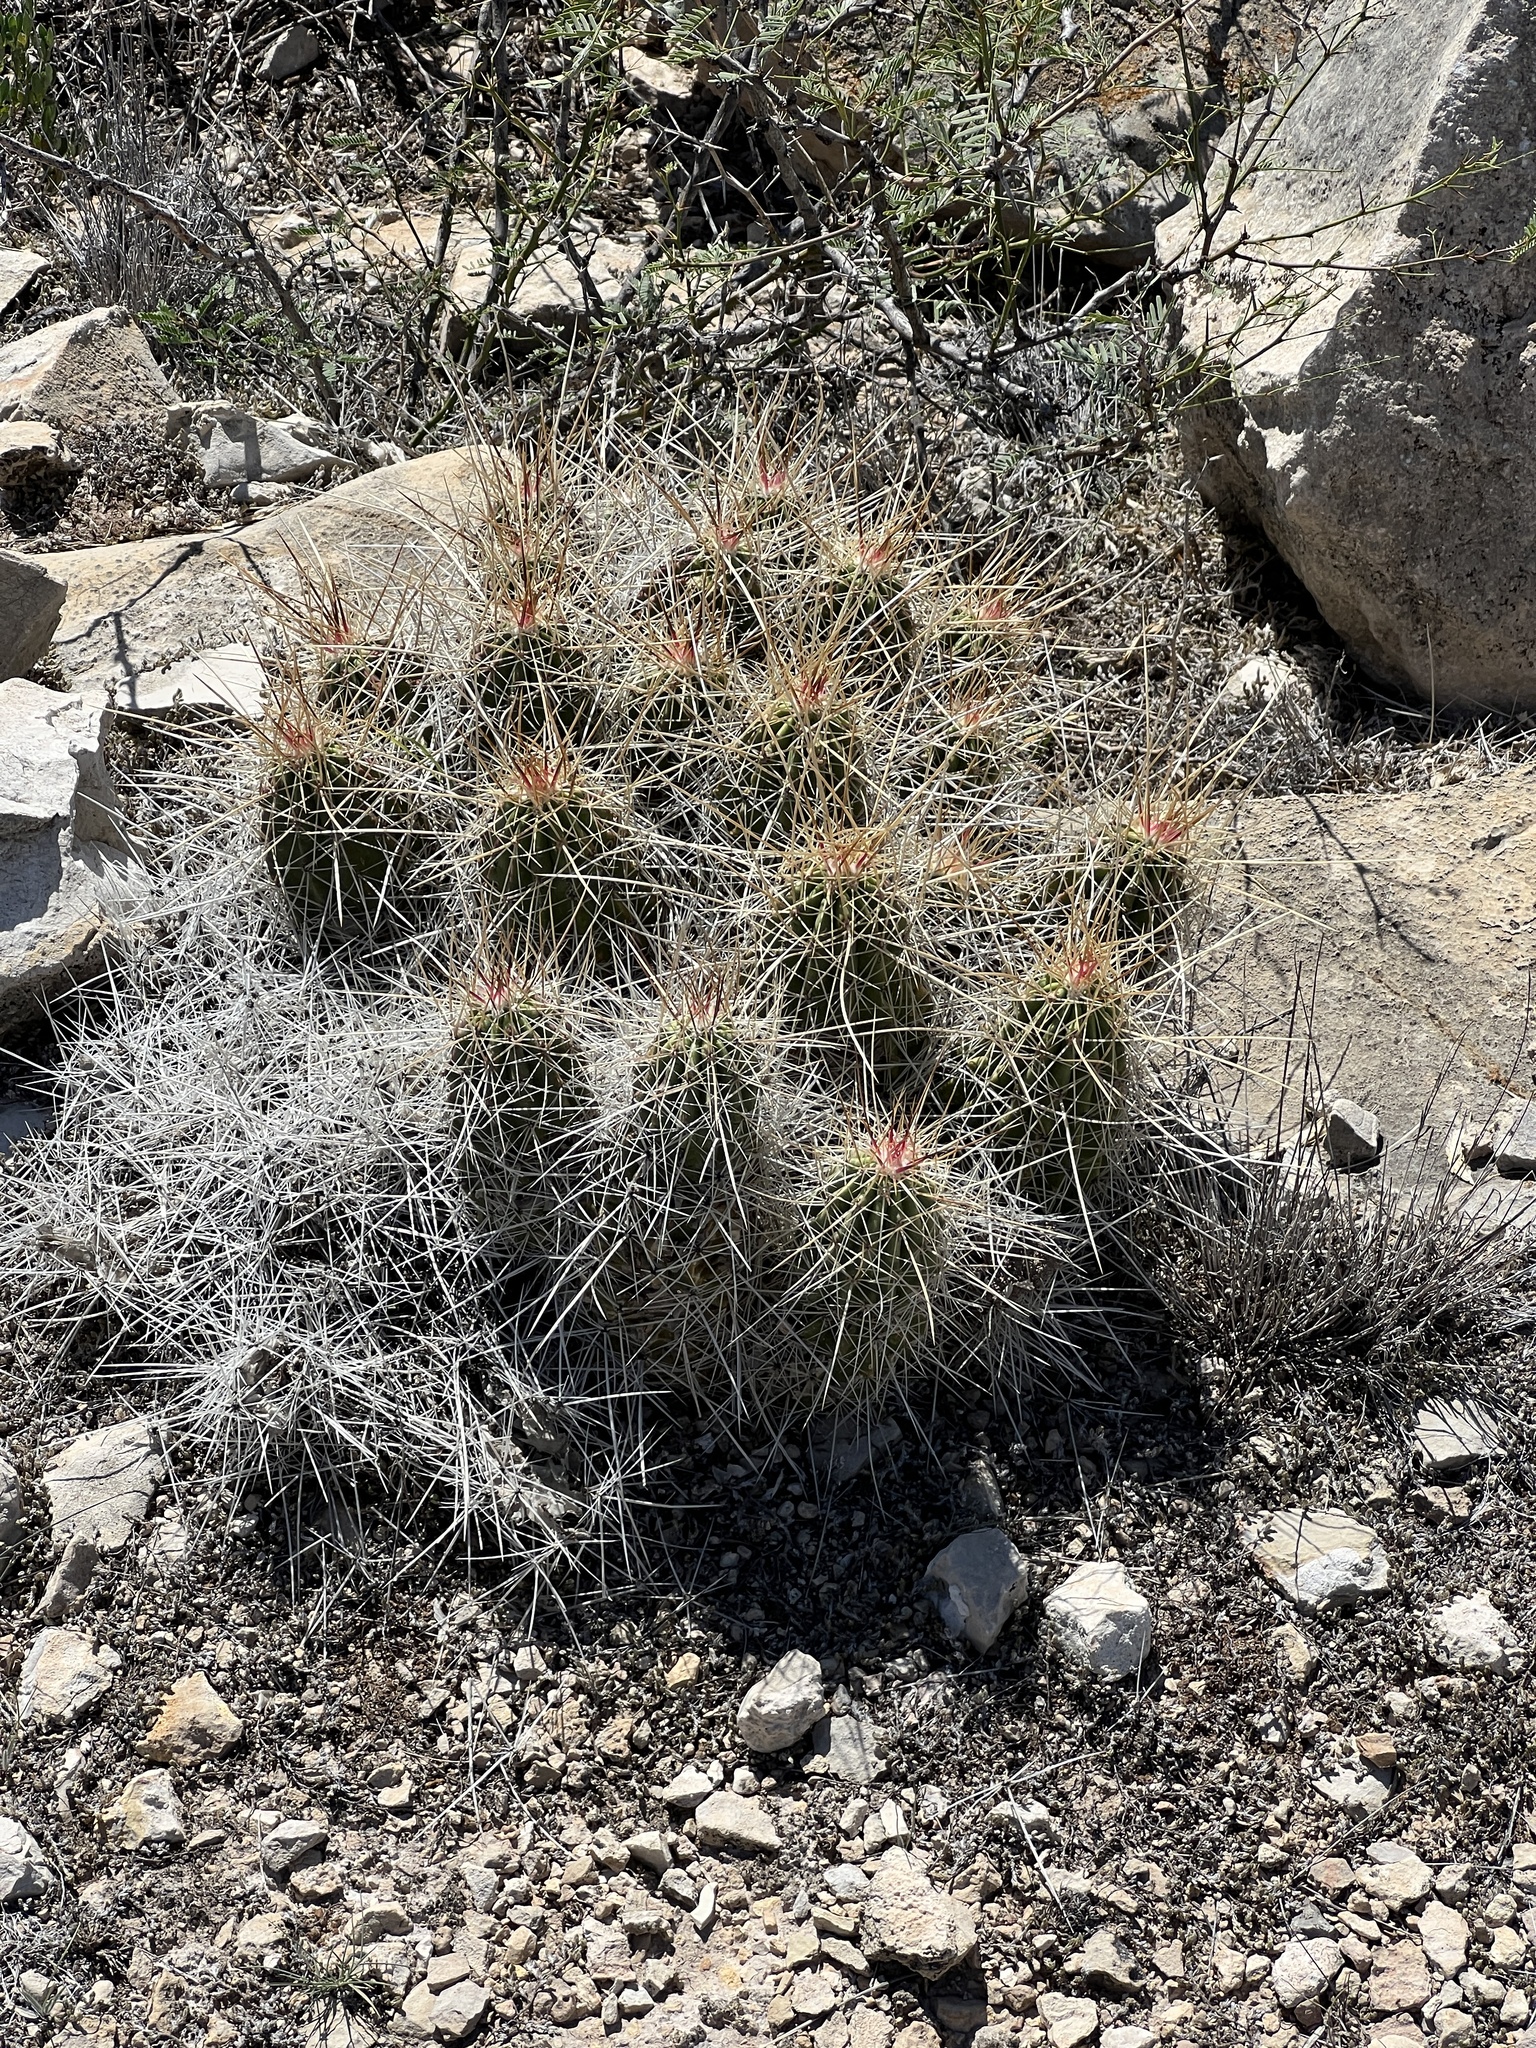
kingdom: Plantae
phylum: Tracheophyta
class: Magnoliopsida
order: Caryophyllales
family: Cactaceae
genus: Echinocereus
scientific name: Echinocereus stramineus
